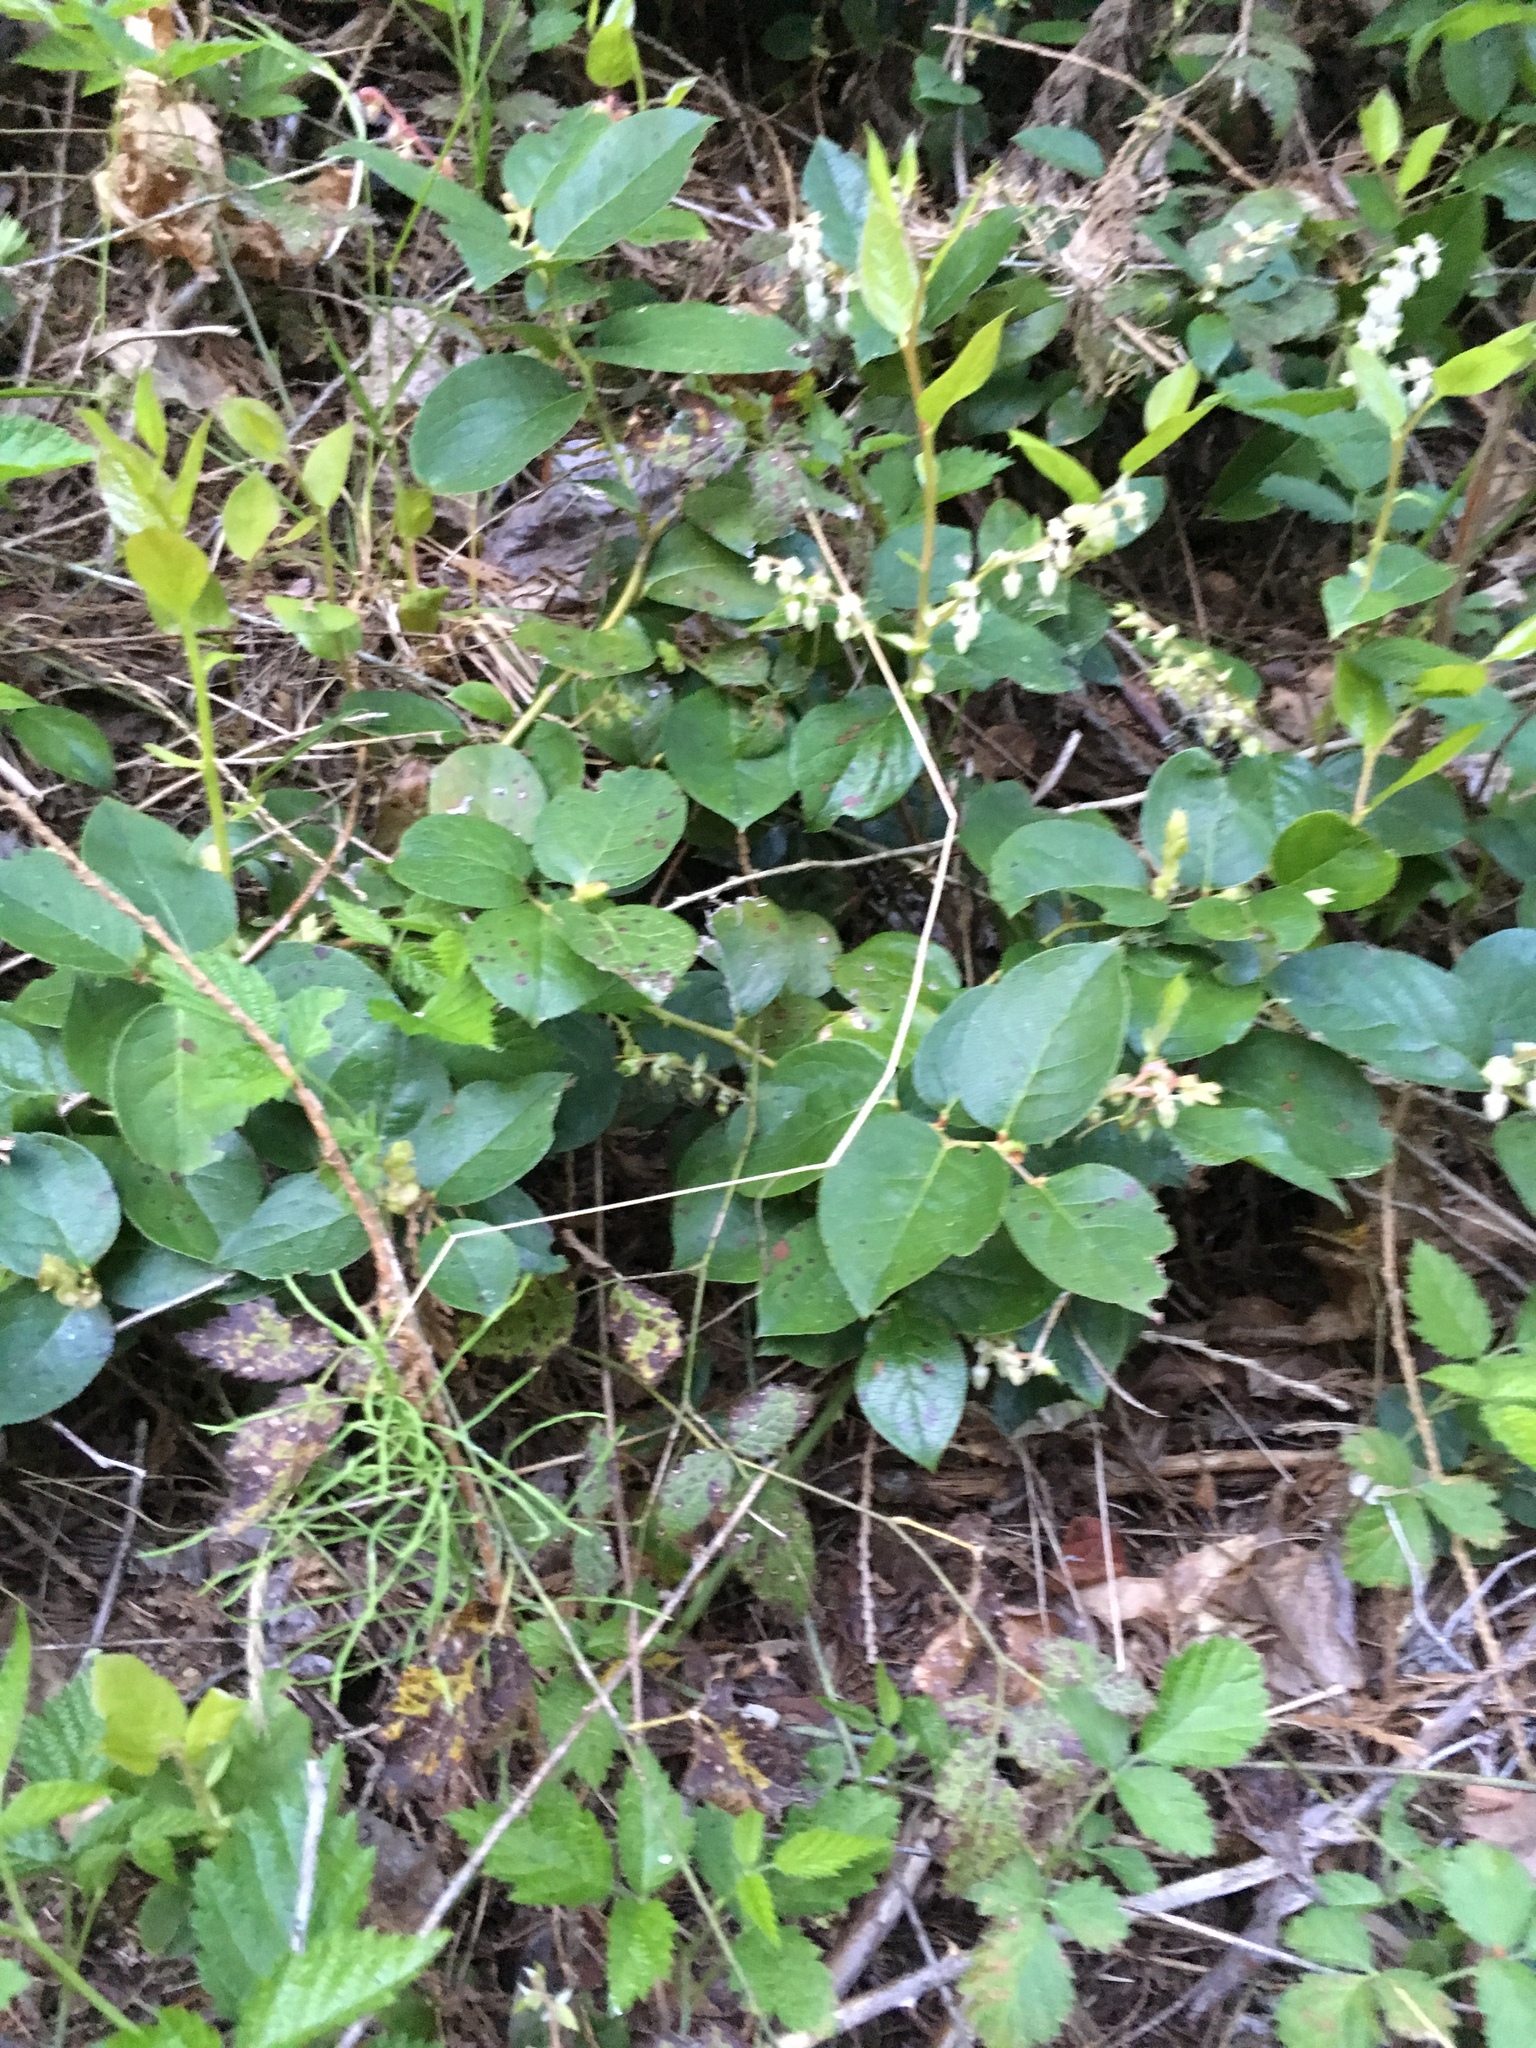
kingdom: Plantae
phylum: Tracheophyta
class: Magnoliopsida
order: Ericales
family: Ericaceae
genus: Gaultheria
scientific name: Gaultheria shallon
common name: Shallon
